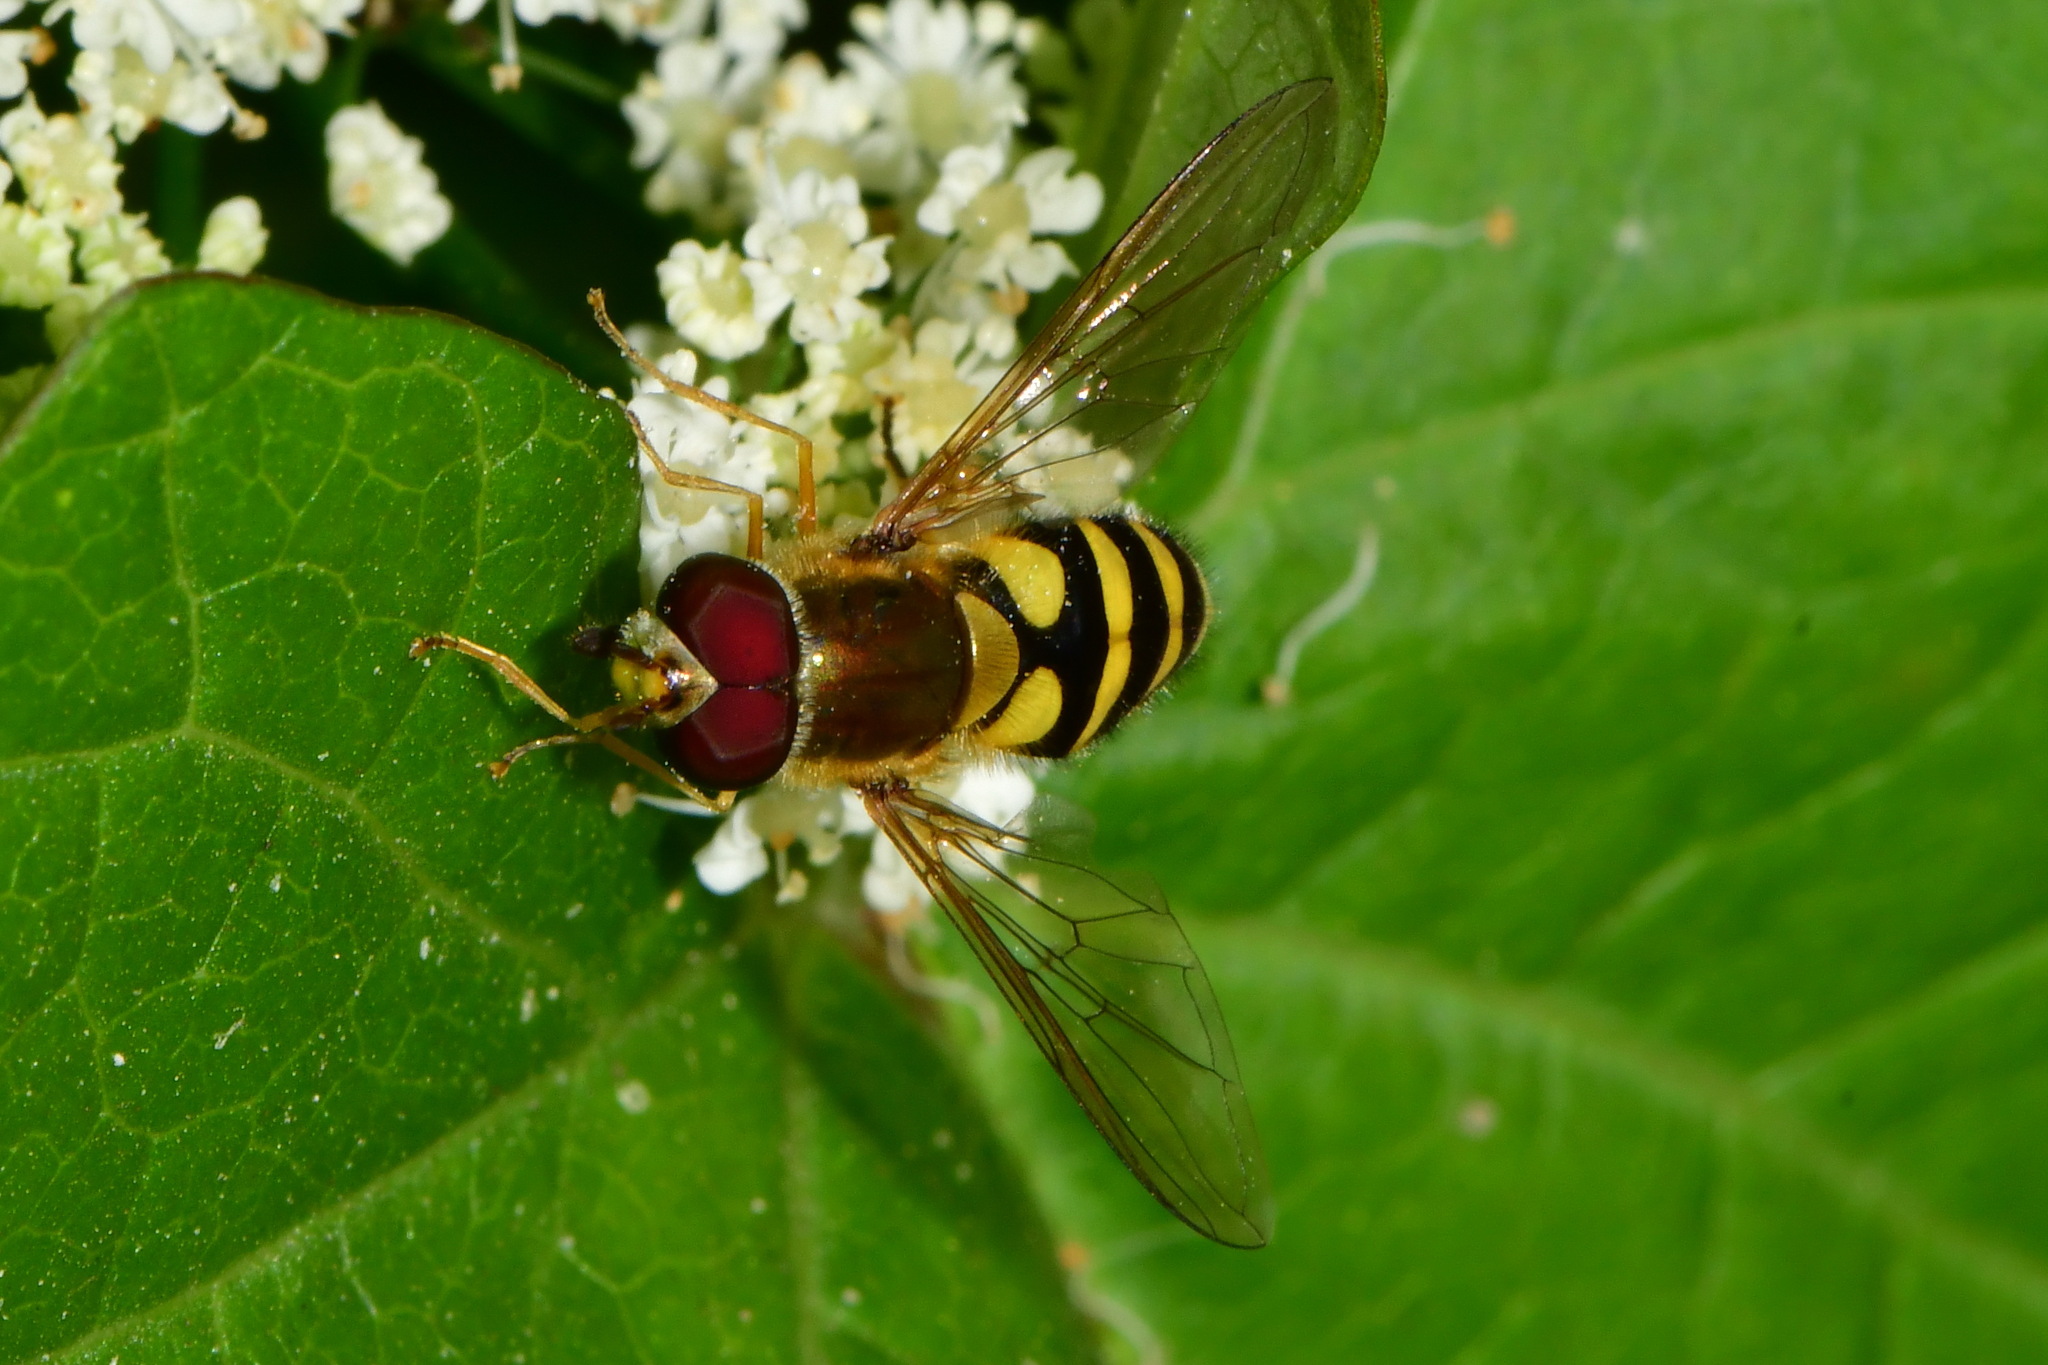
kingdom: Animalia
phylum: Arthropoda
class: Insecta
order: Diptera
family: Syrphidae
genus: Syrphus
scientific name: Syrphus
